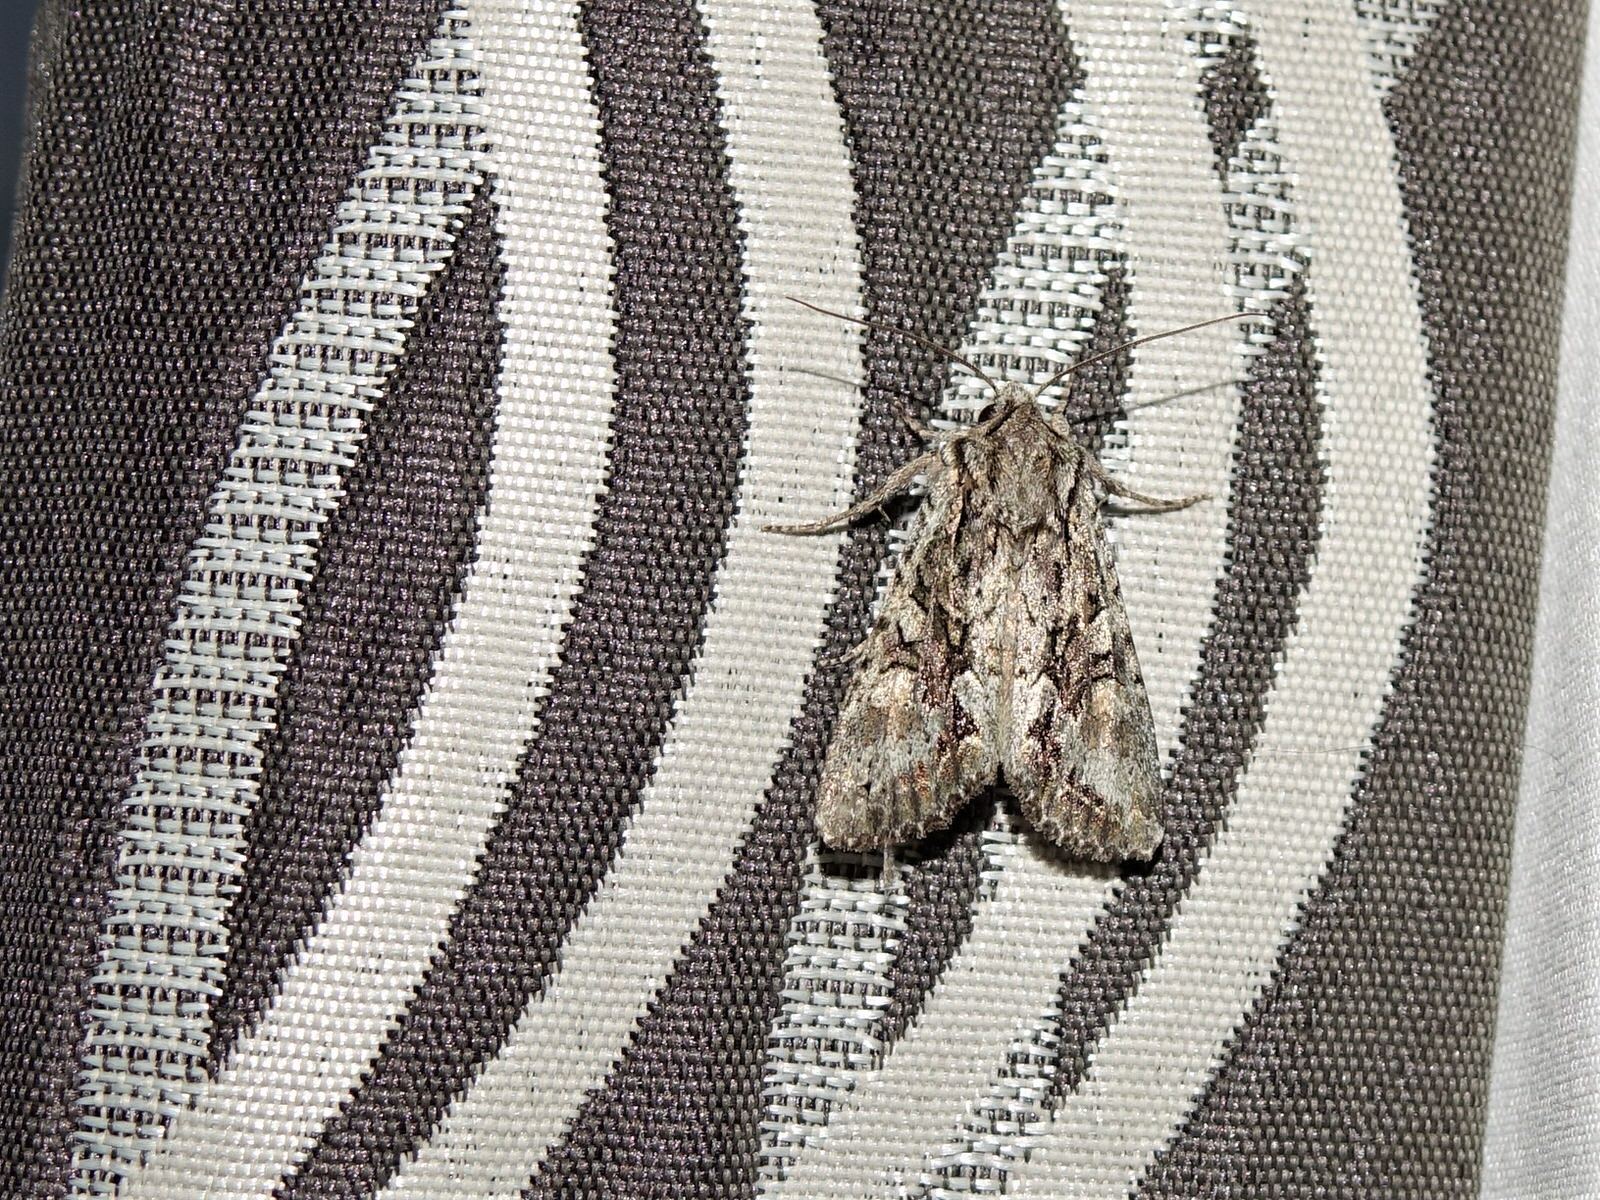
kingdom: Animalia
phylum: Arthropoda
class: Insecta
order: Lepidoptera
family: Noctuidae
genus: Ichneutica
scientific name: Ichneutica mutans
